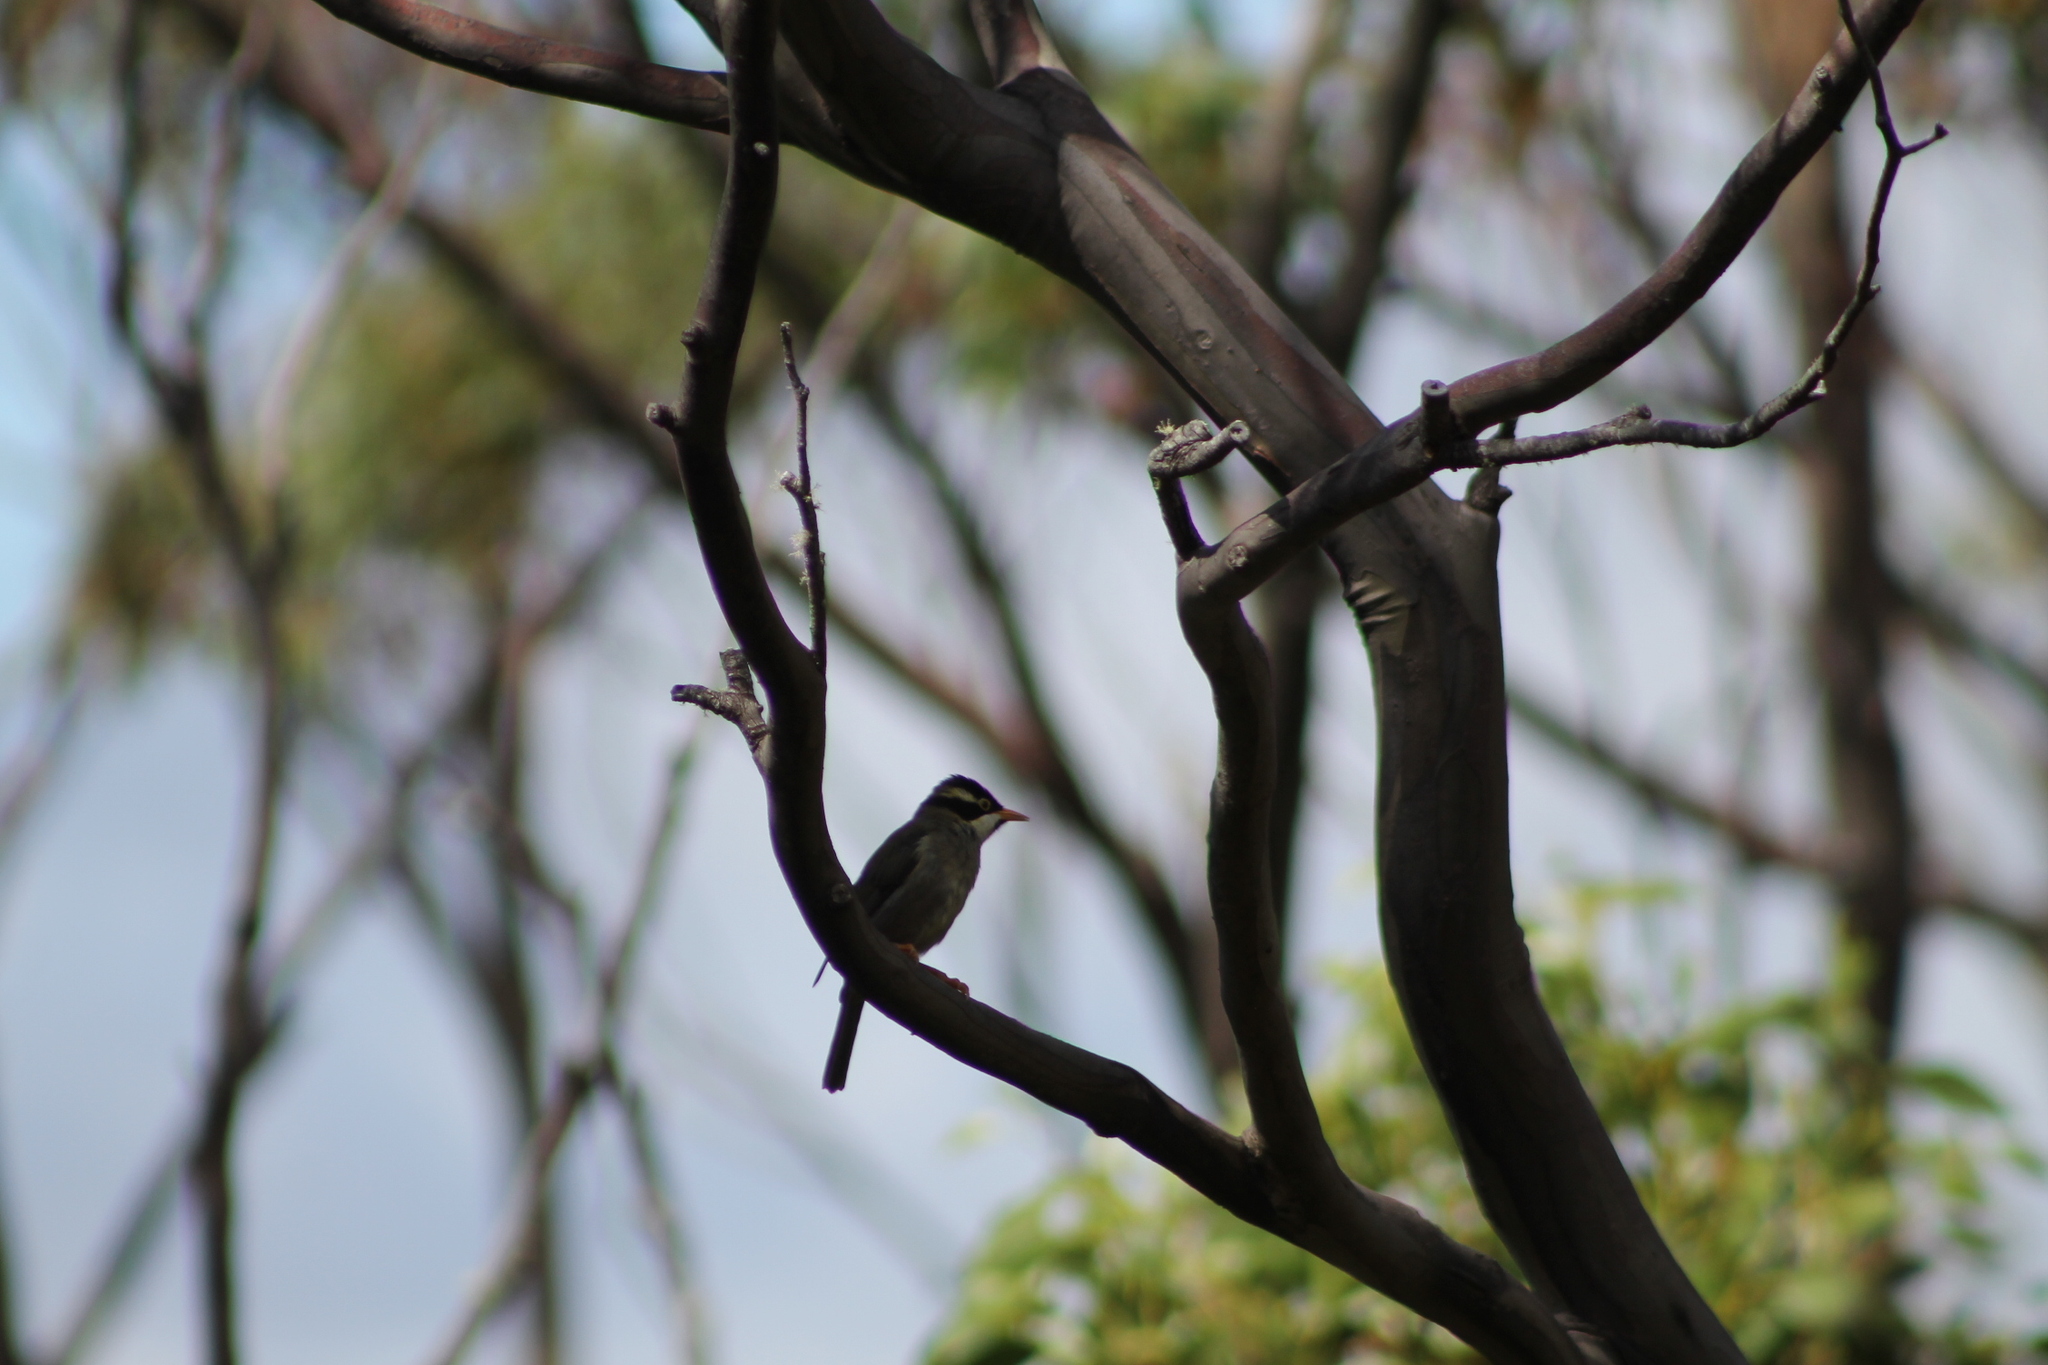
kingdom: Animalia
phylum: Chordata
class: Aves
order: Passeriformes
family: Meliphagidae
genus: Melithreptus
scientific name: Melithreptus validirostris
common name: Strong-billed honeyeater
